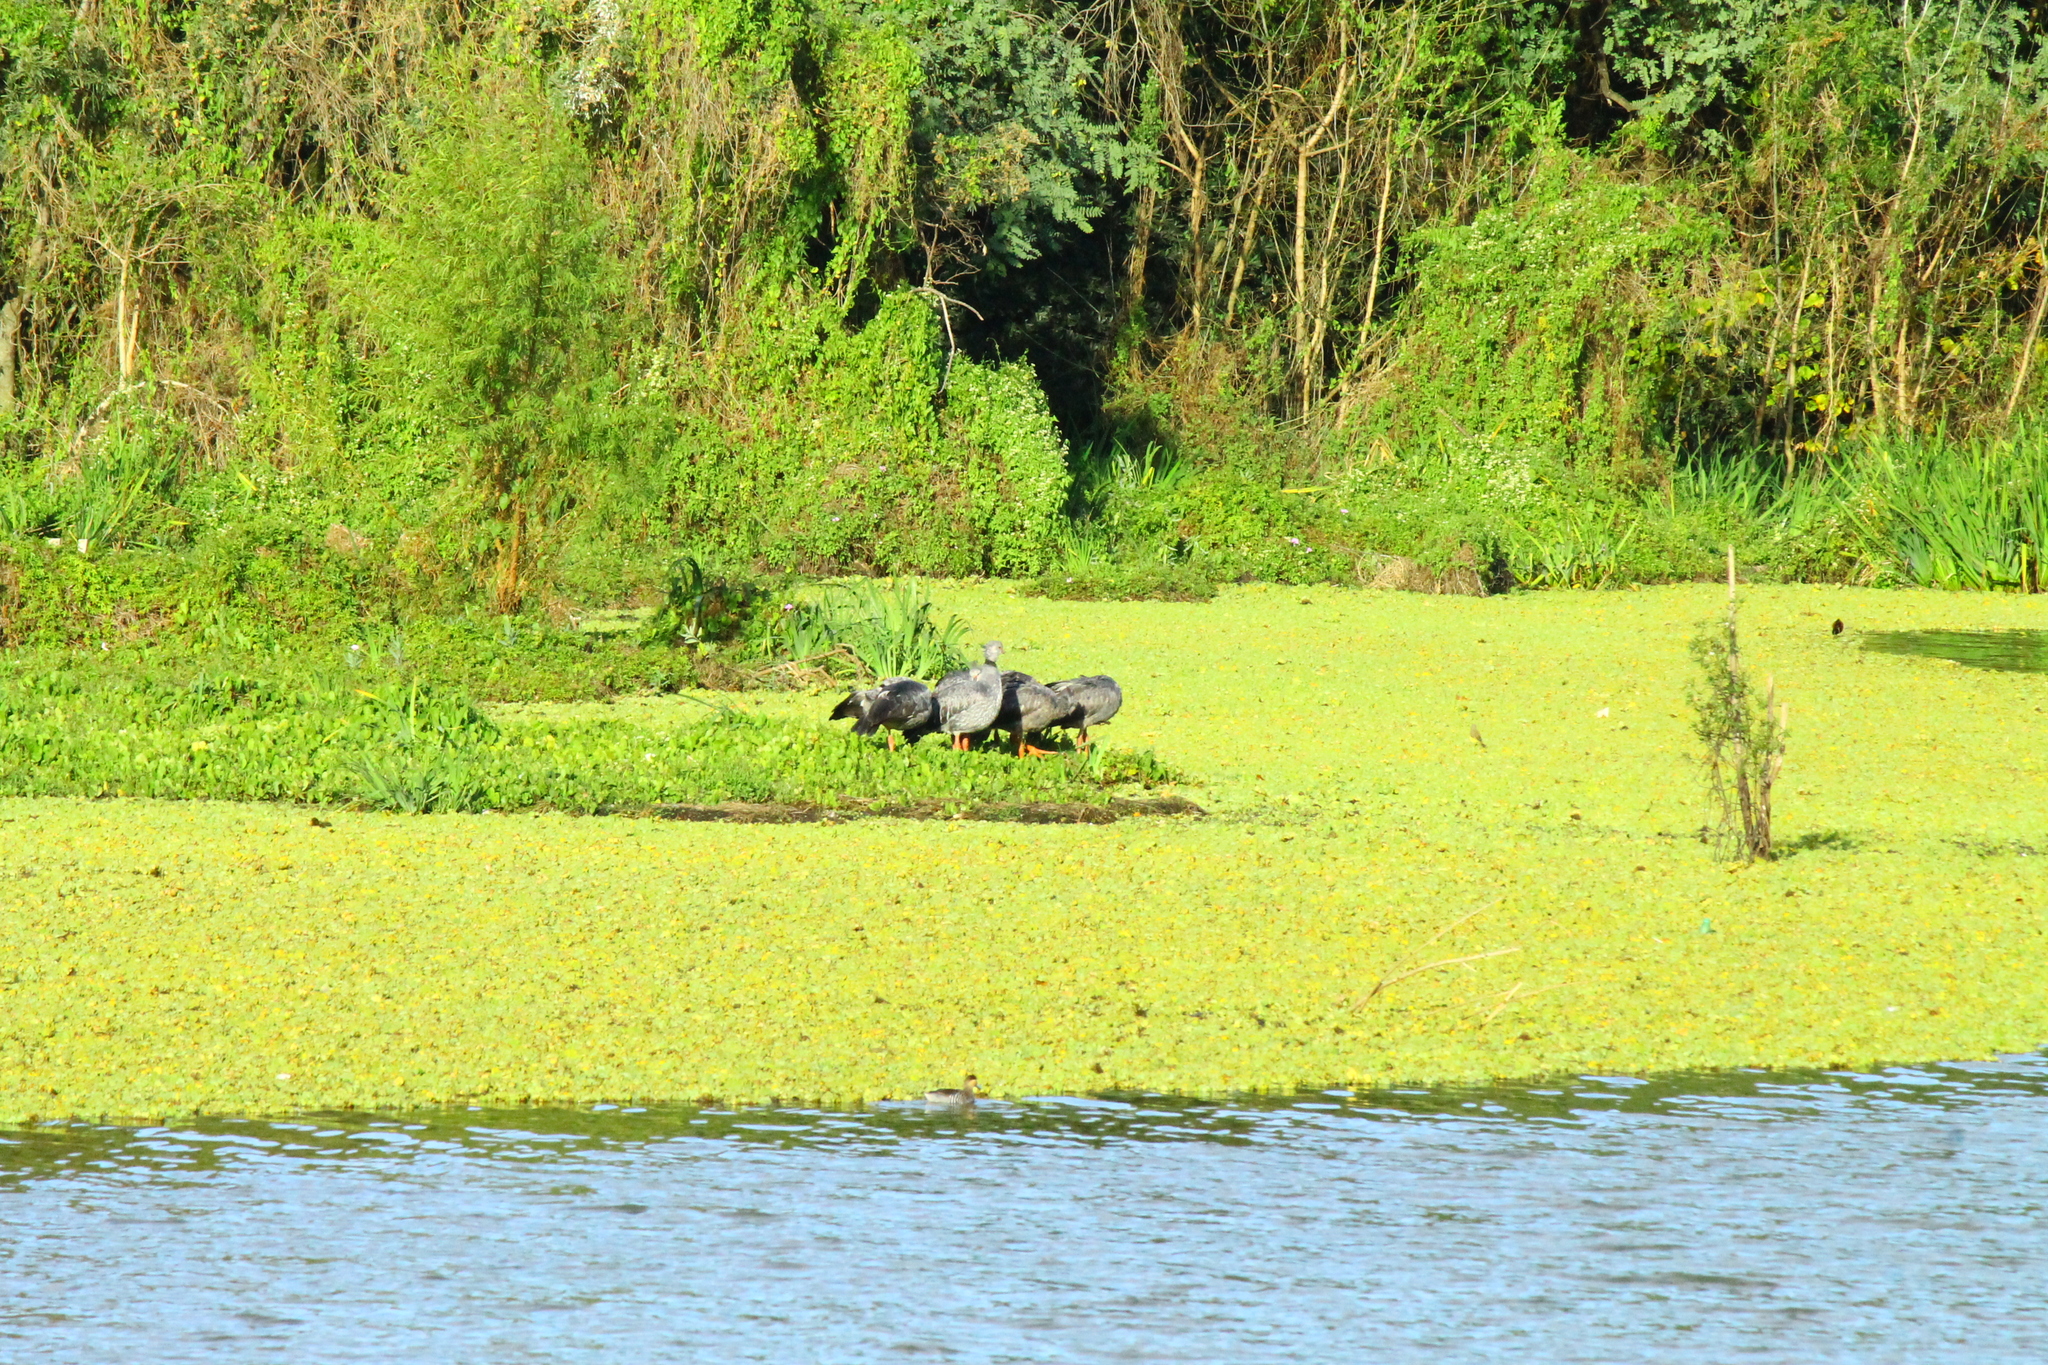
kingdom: Animalia
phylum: Chordata
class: Aves
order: Anseriformes
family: Anhimidae
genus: Chauna
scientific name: Chauna torquata
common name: Southern screamer
